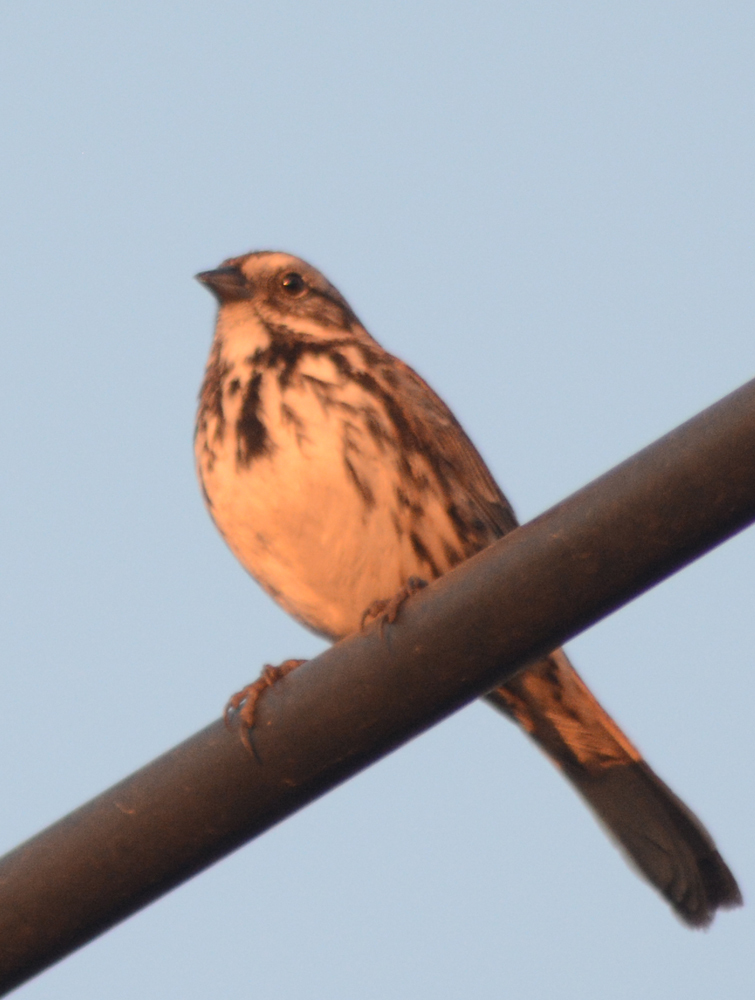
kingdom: Animalia
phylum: Chordata
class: Aves
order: Passeriformes
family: Passerellidae
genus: Melospiza
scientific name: Melospiza melodia
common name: Song sparrow
